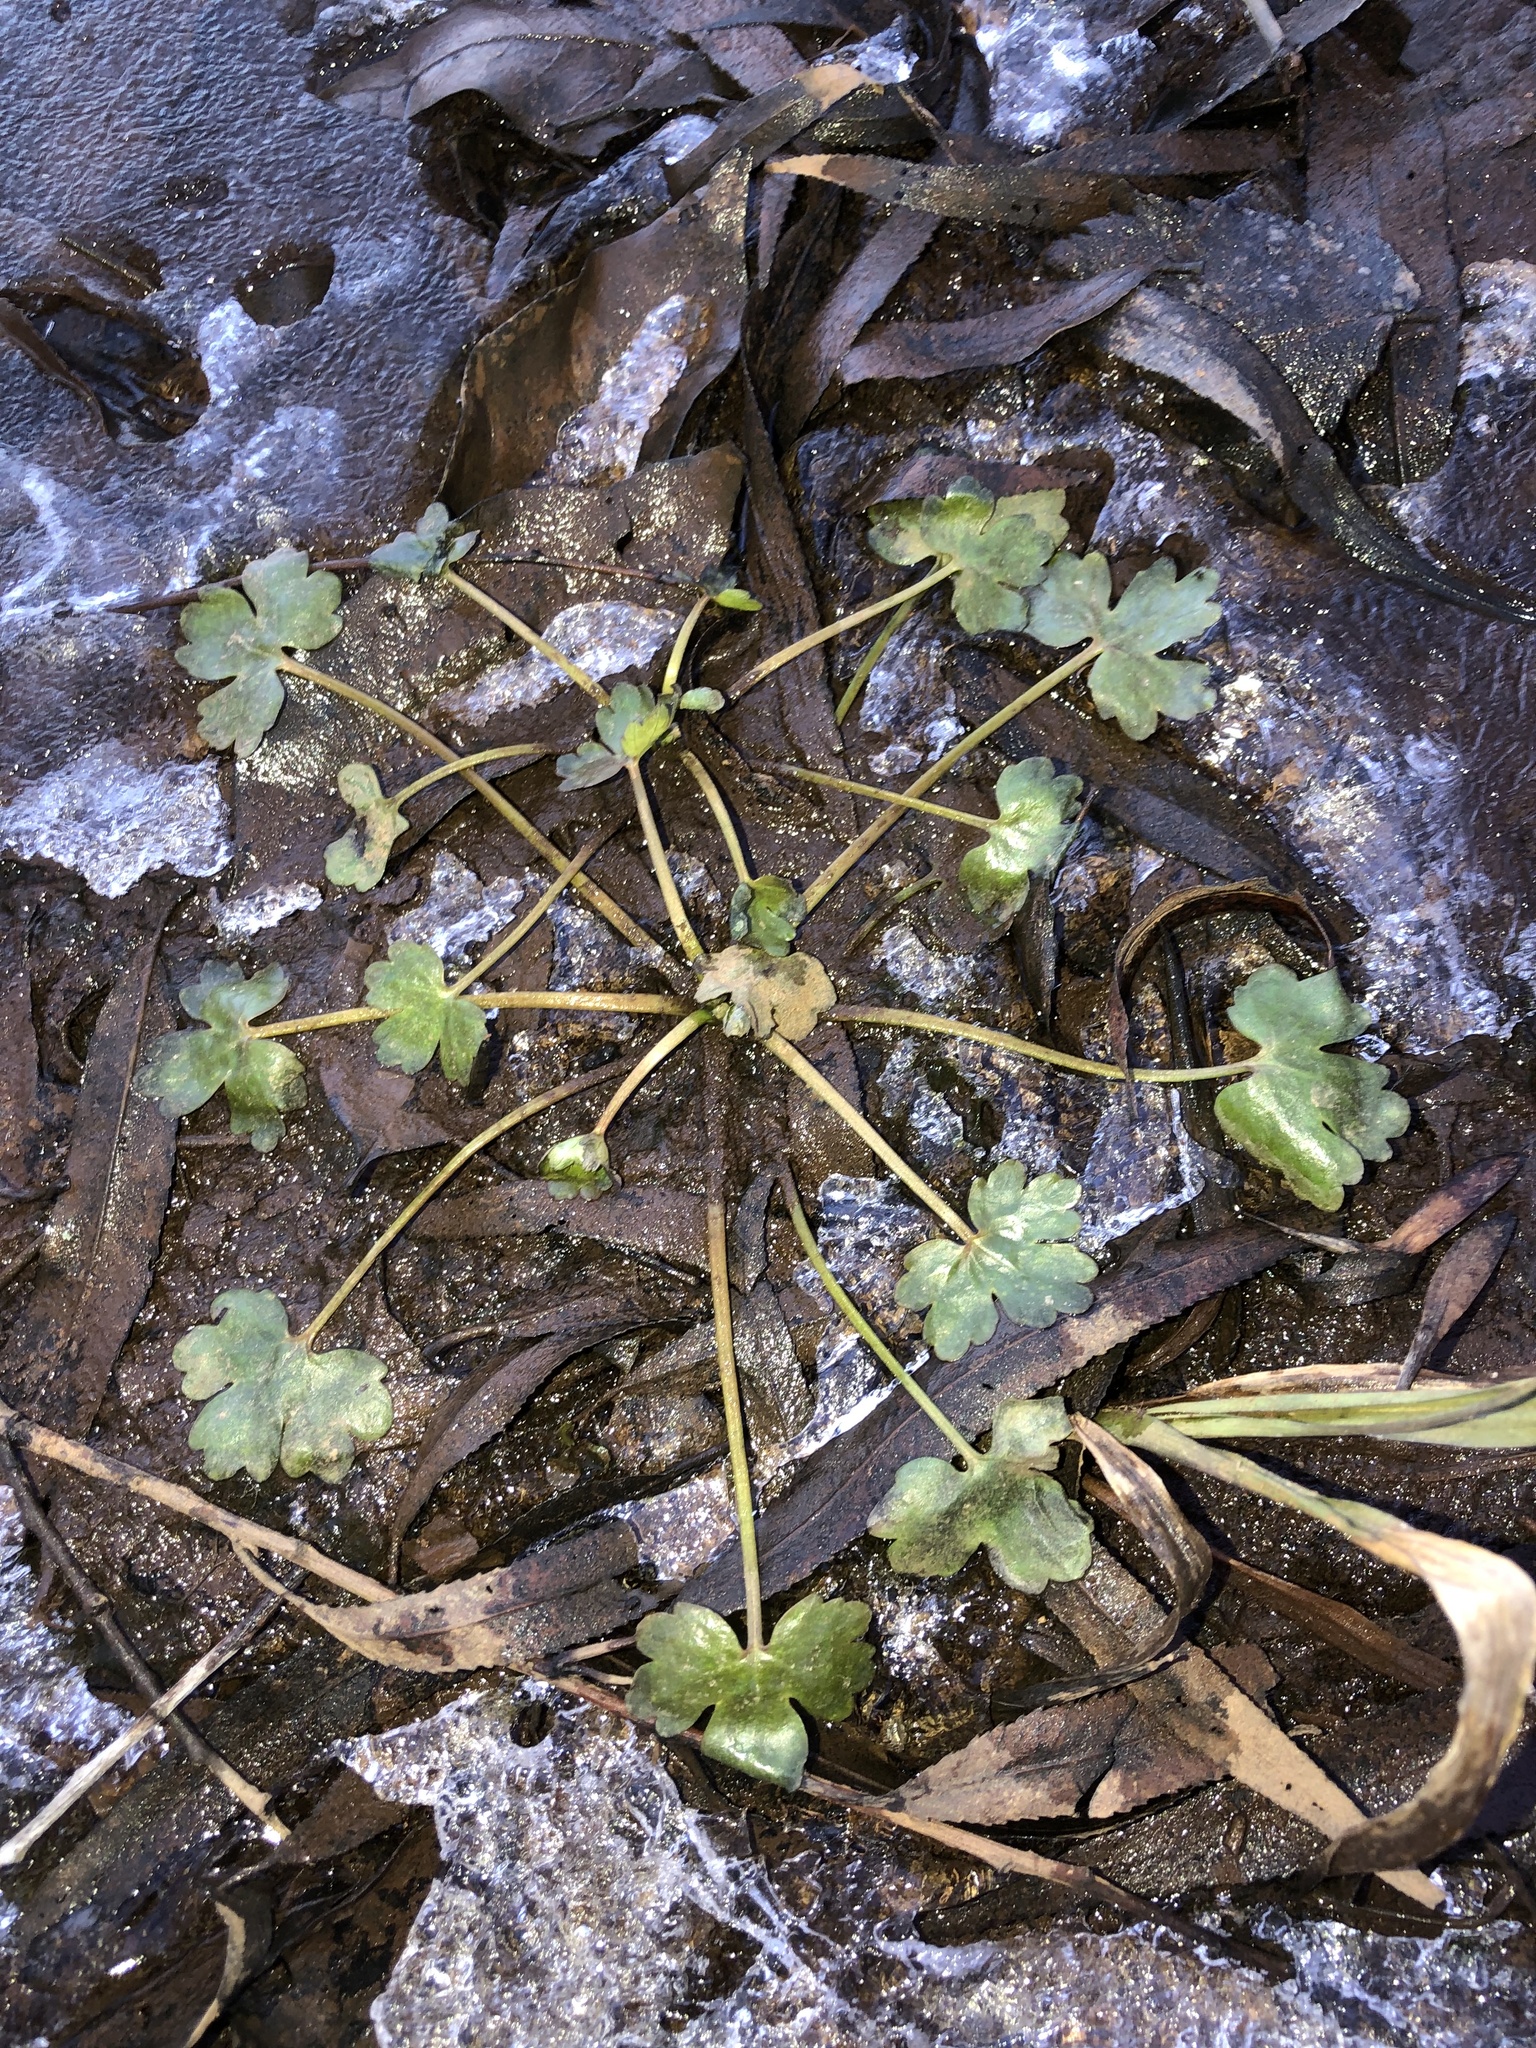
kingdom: Plantae
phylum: Tracheophyta
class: Magnoliopsida
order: Ranunculales
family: Ranunculaceae
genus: Ranunculus
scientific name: Ranunculus sceleratus
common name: Celery-leaved buttercup
